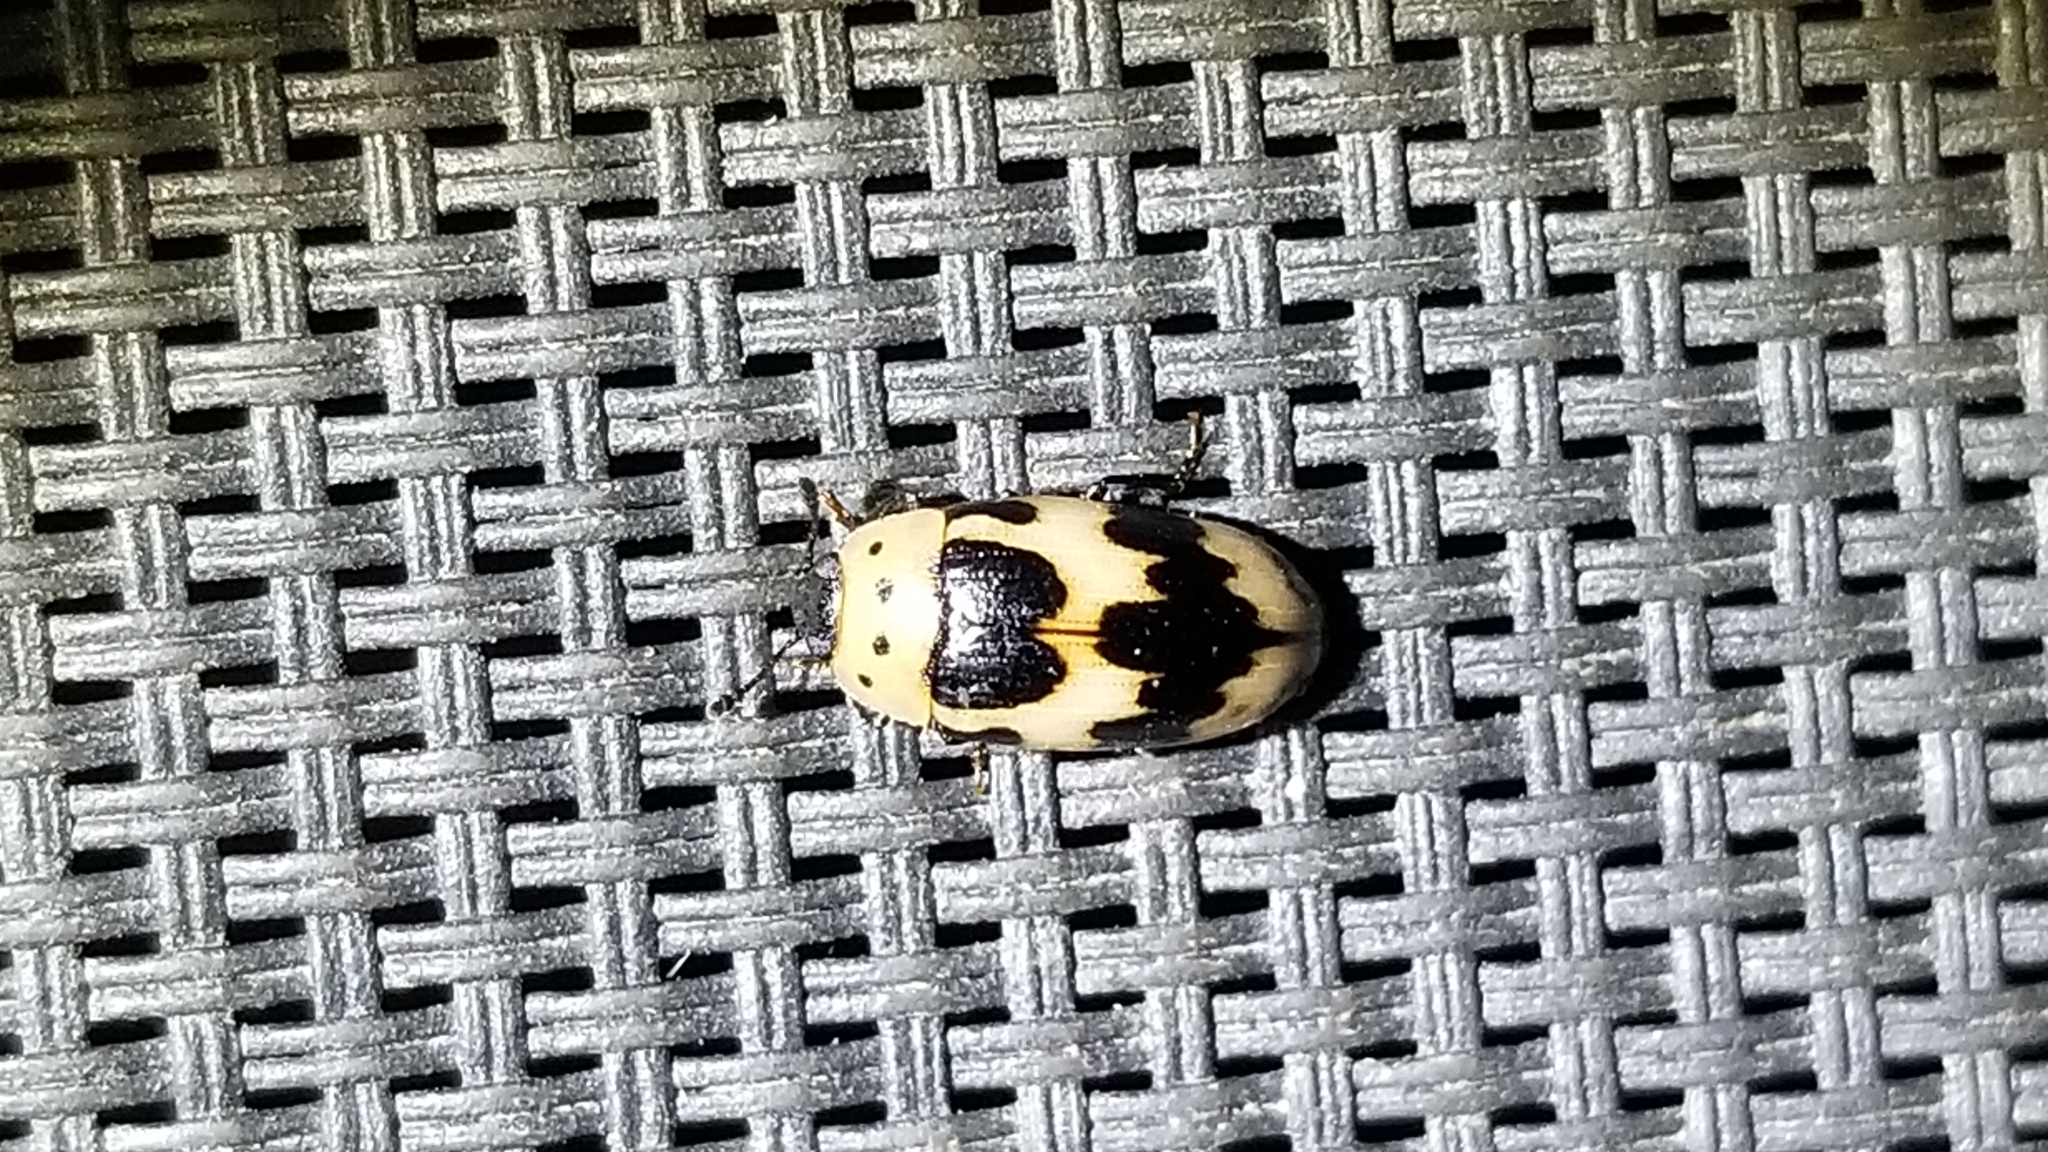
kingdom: Animalia
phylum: Arthropoda
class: Insecta
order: Coleoptera
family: Erotylidae
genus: Ischyrus
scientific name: Ischyrus quadripunctatus
